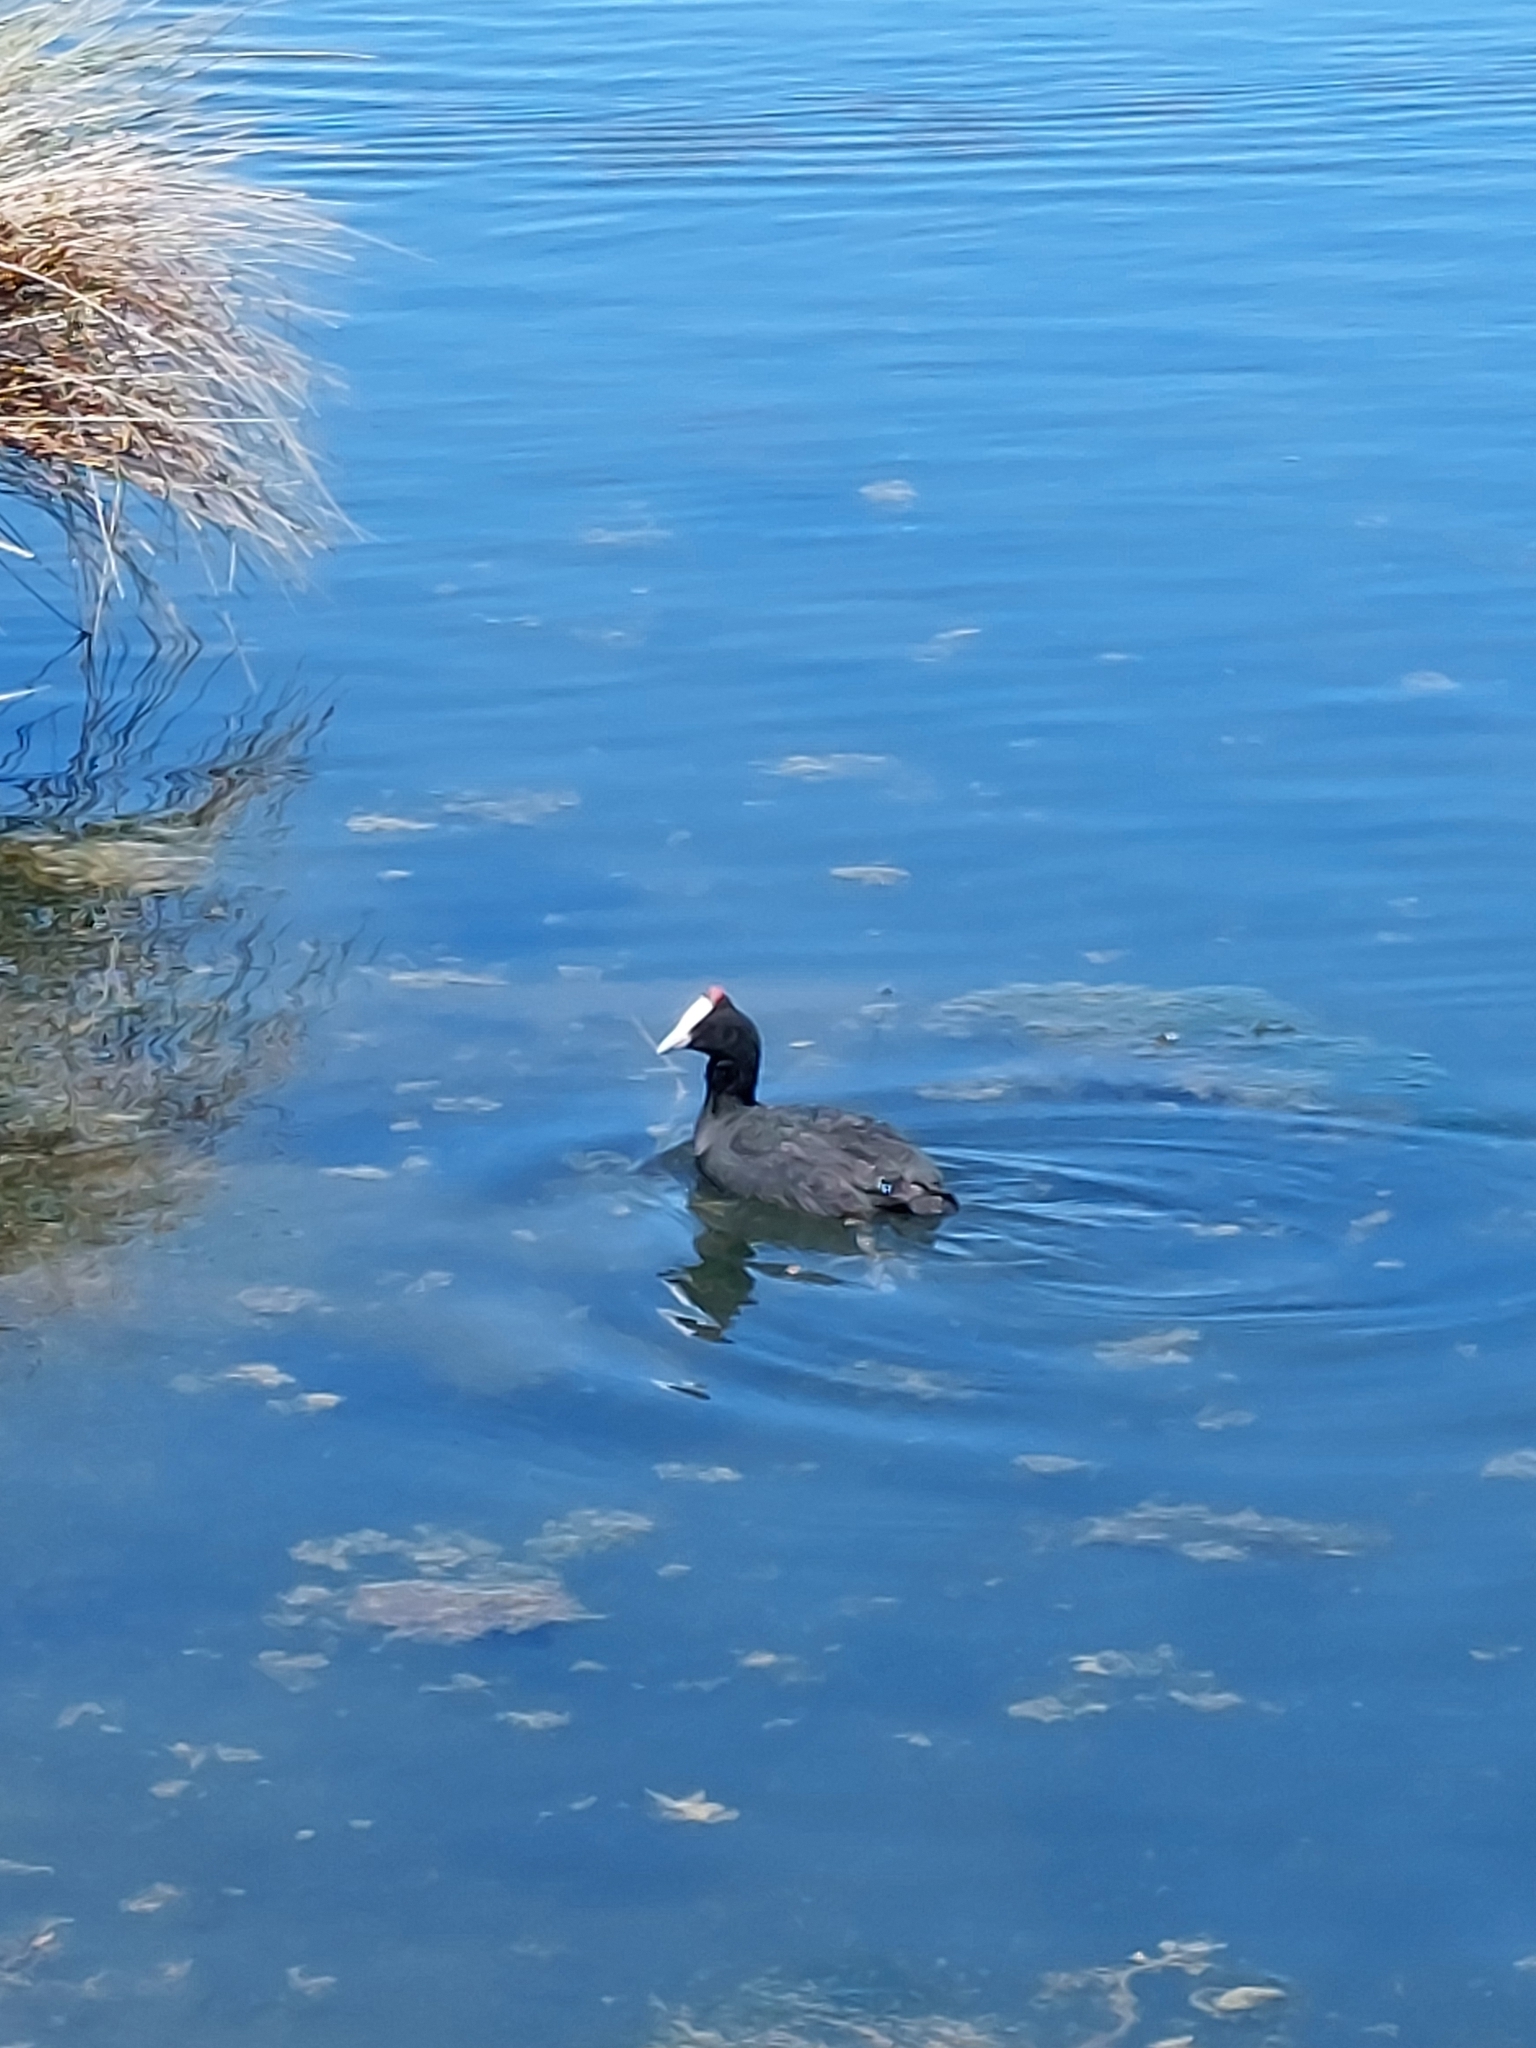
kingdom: Animalia
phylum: Chordata
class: Aves
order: Gruiformes
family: Rallidae
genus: Fulica
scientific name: Fulica cristata
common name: Red-knobbed coot
